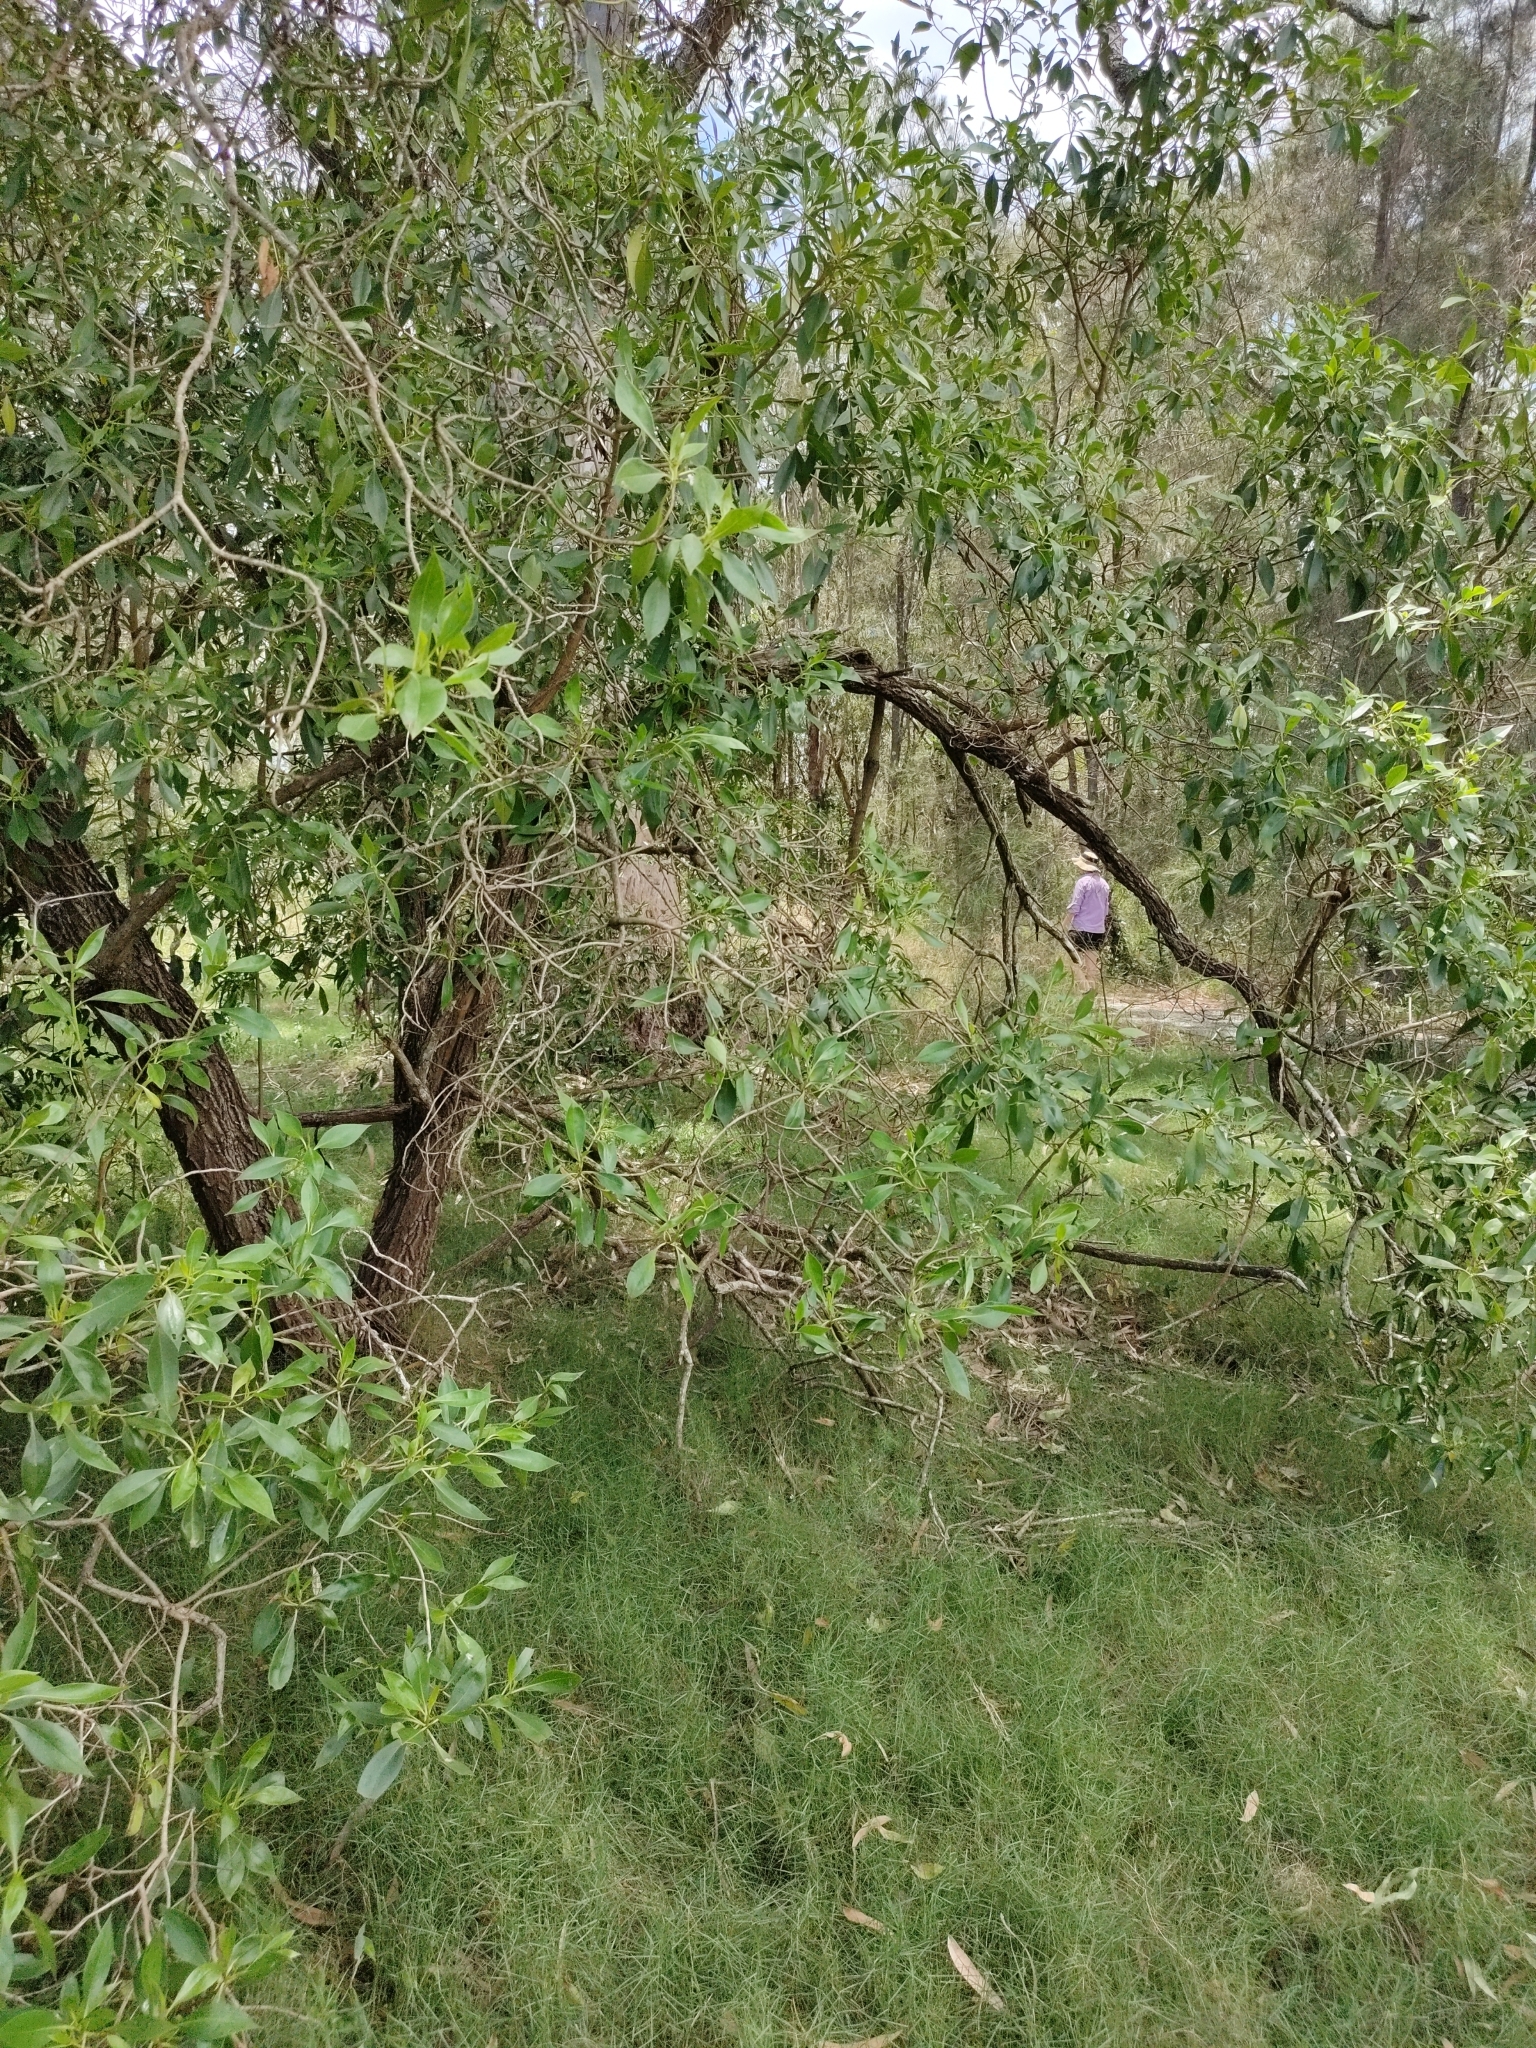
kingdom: Plantae
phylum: Tracheophyta
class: Magnoliopsida
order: Lamiales
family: Scrophulariaceae
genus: Myoporum
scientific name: Myoporum acuminatum
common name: Pointed boobialla
